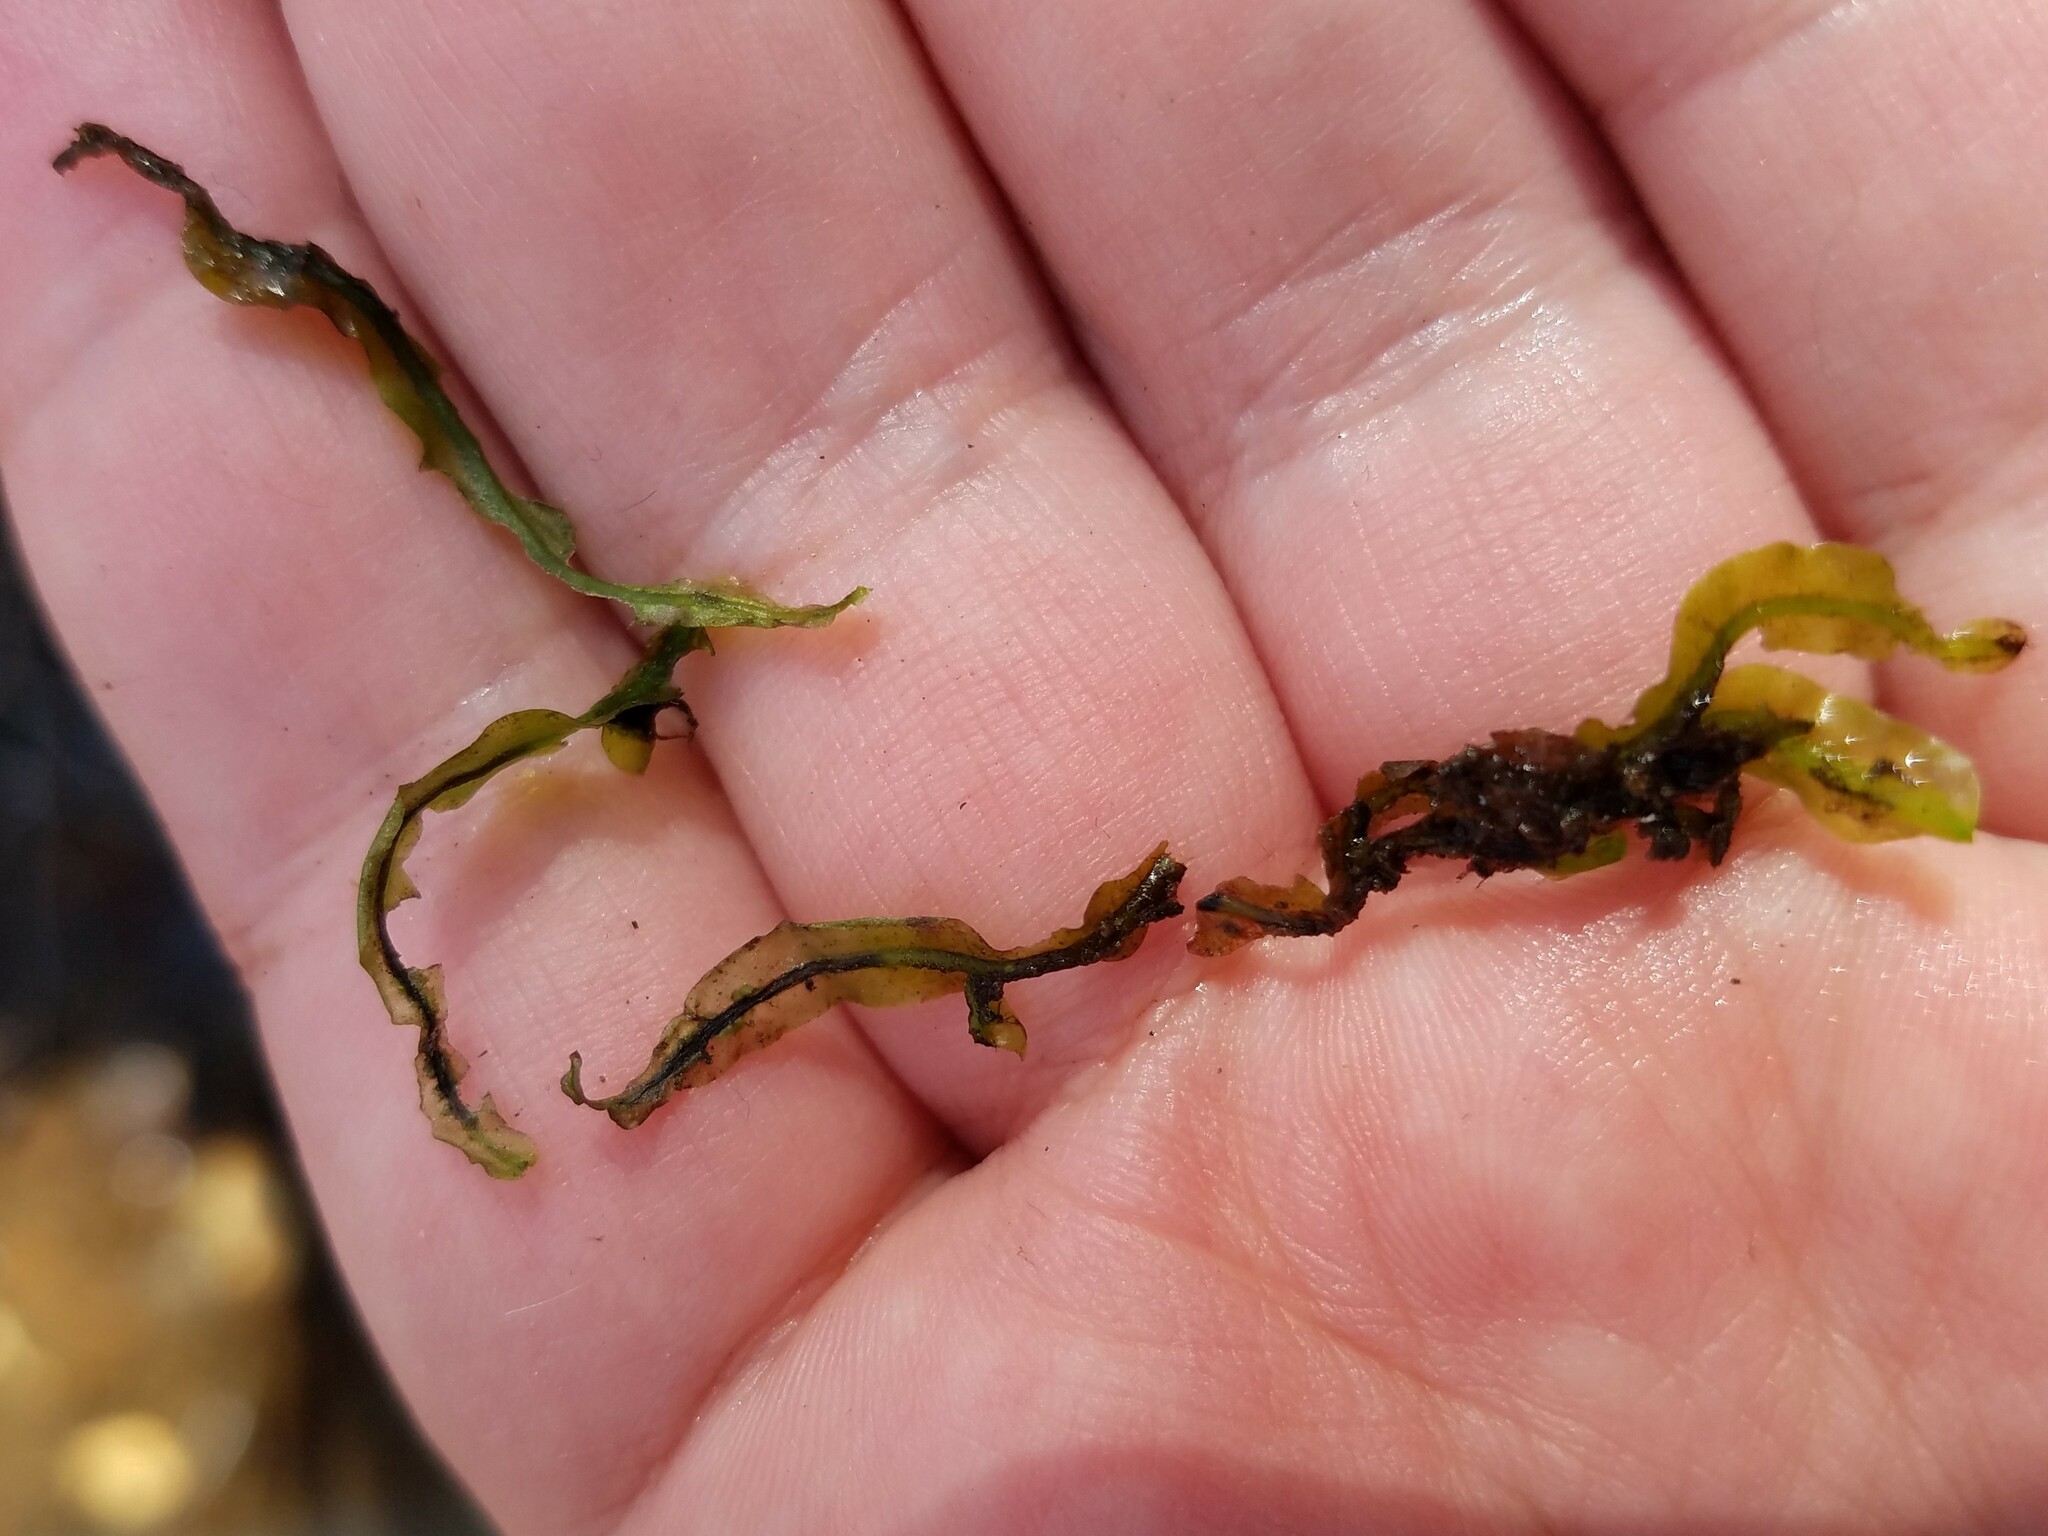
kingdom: Plantae
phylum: Marchantiophyta
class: Jungermanniopsida
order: Pallaviciniales
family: Pallaviciniaceae
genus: Pallavicinia
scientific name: Pallavicinia lyellii
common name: Veilwort
